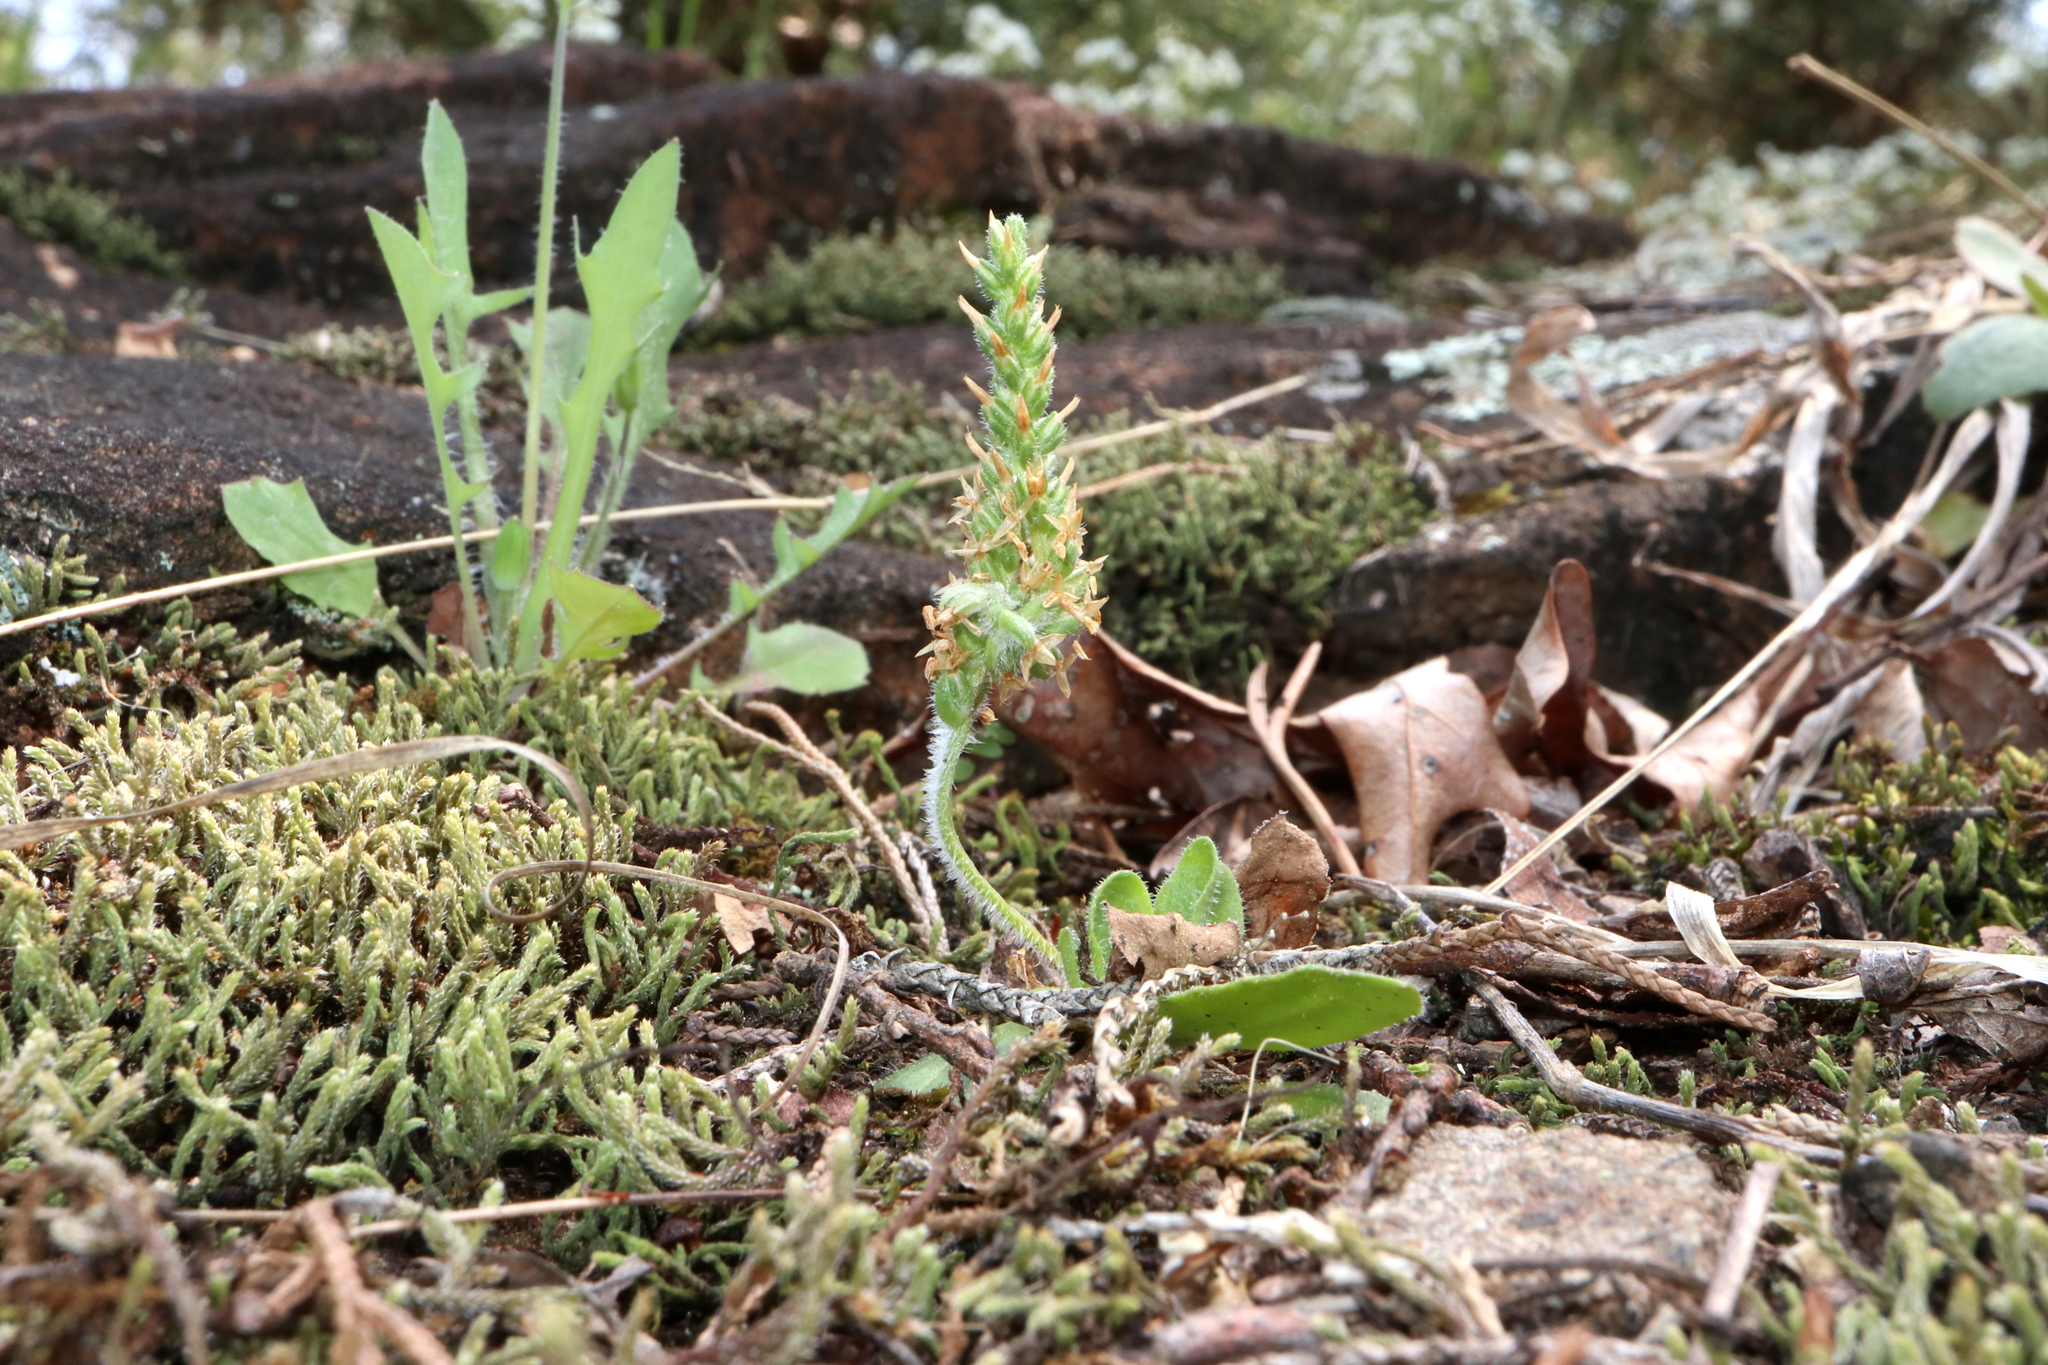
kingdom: Plantae
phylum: Tracheophyta
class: Magnoliopsida
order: Lamiales
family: Plantaginaceae
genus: Plantago
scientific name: Plantago virginica
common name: Hoary plantain
